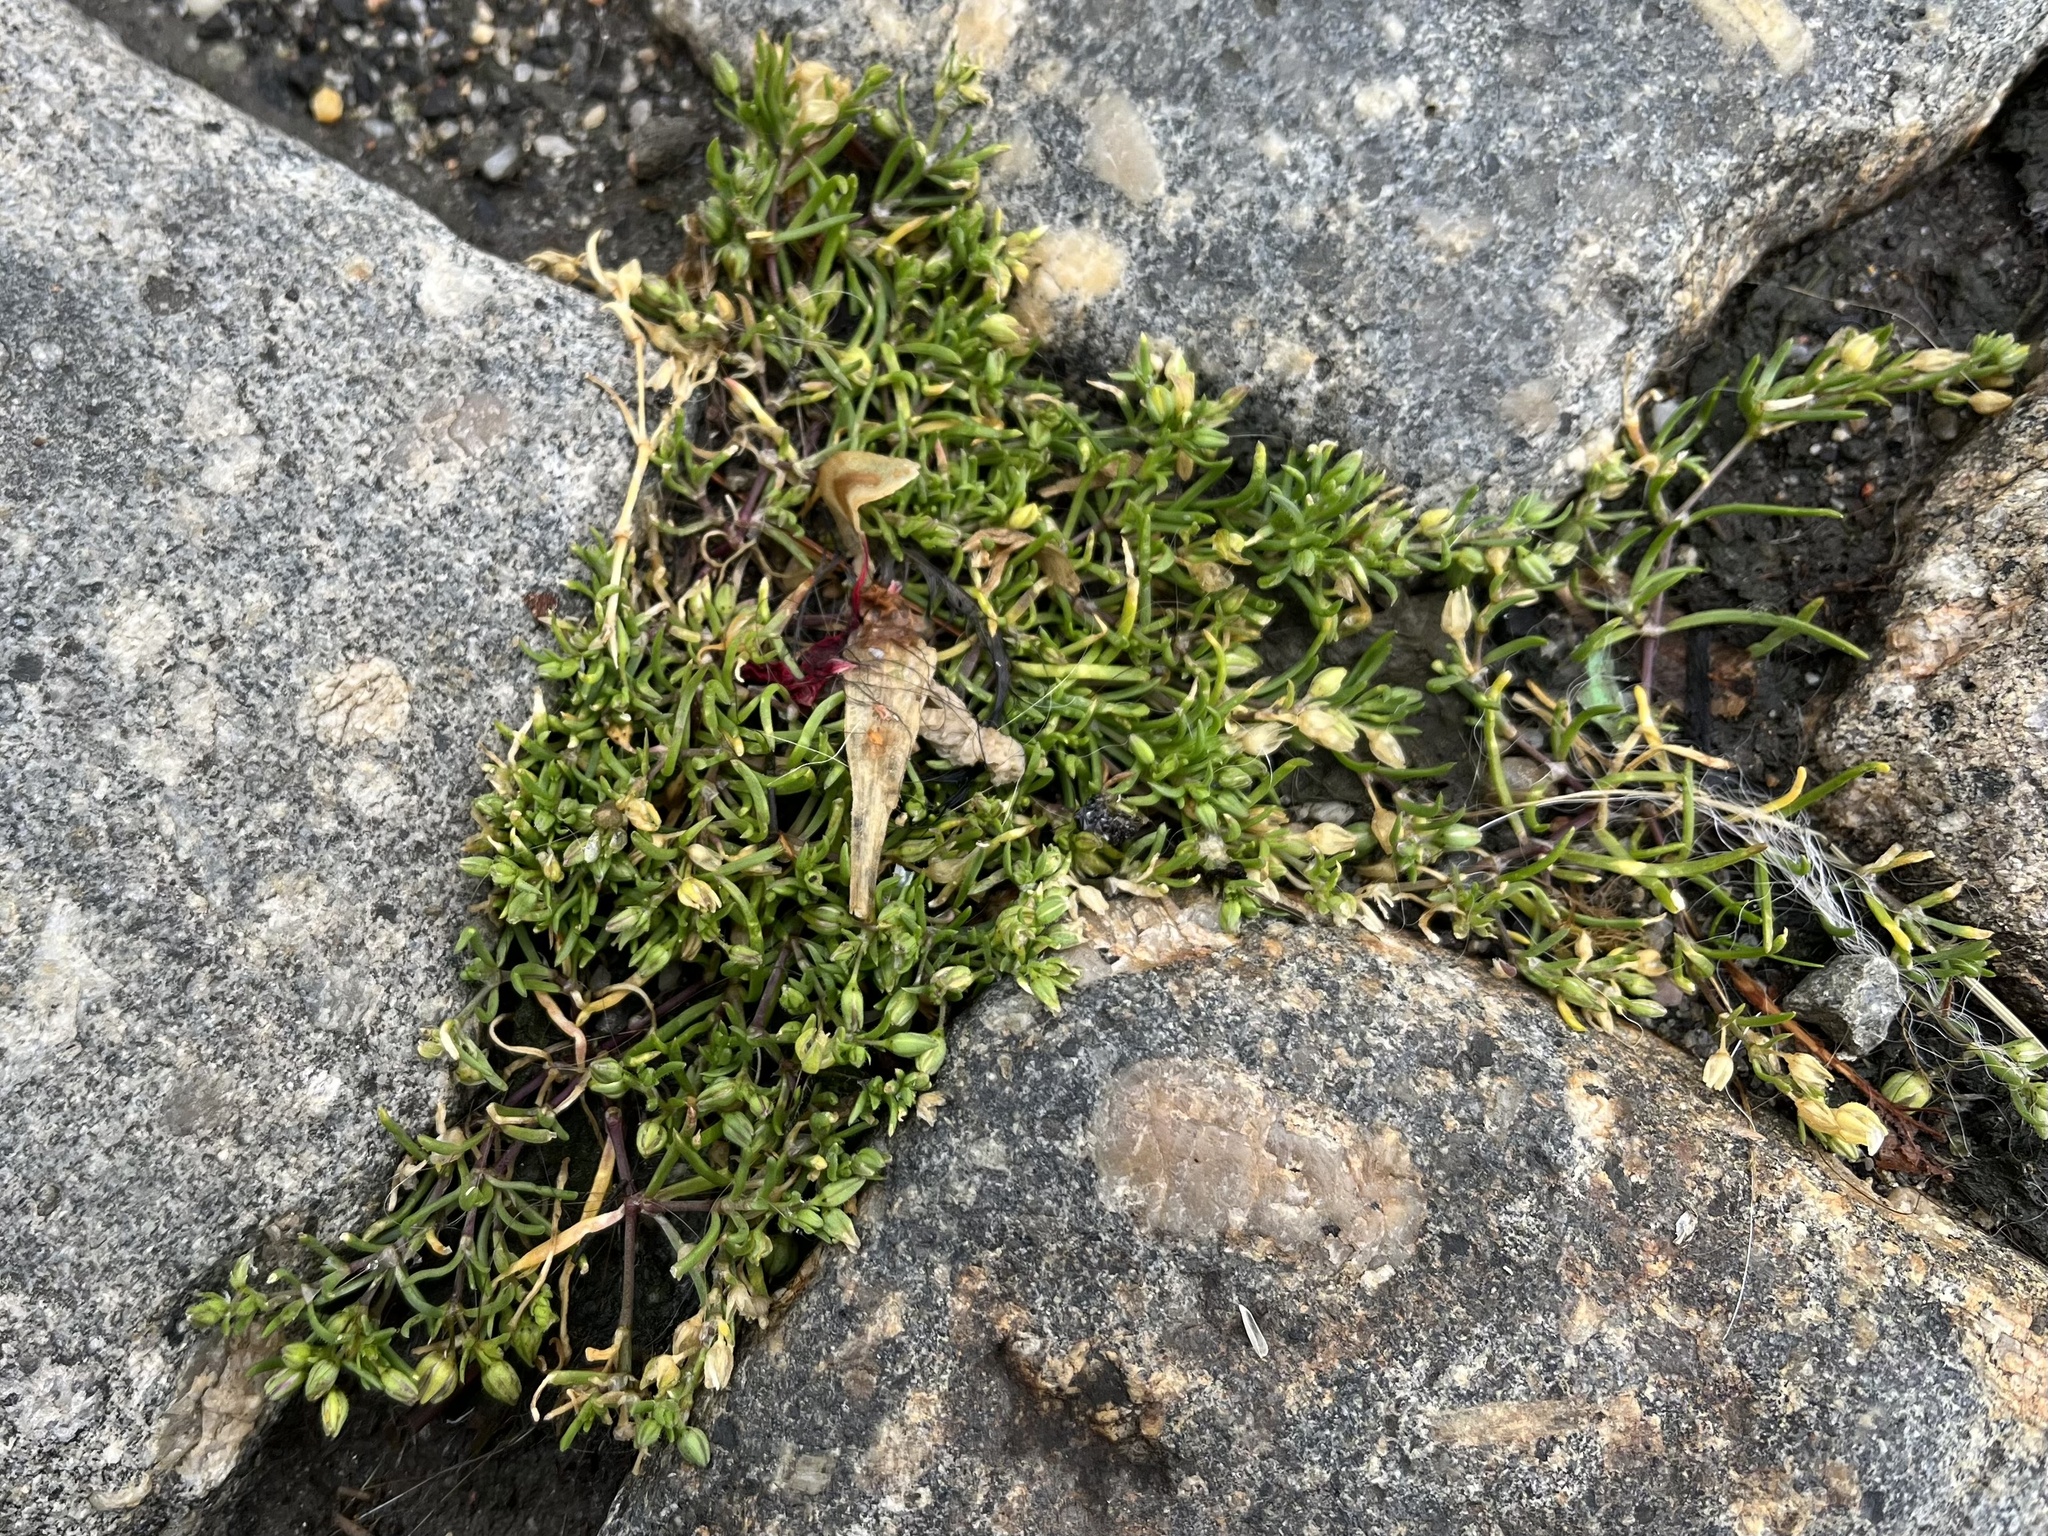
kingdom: Plantae
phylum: Tracheophyta
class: Magnoliopsida
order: Caryophyllales
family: Caryophyllaceae
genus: Spergularia
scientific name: Spergularia marina
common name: Lesser sea-spurrey
